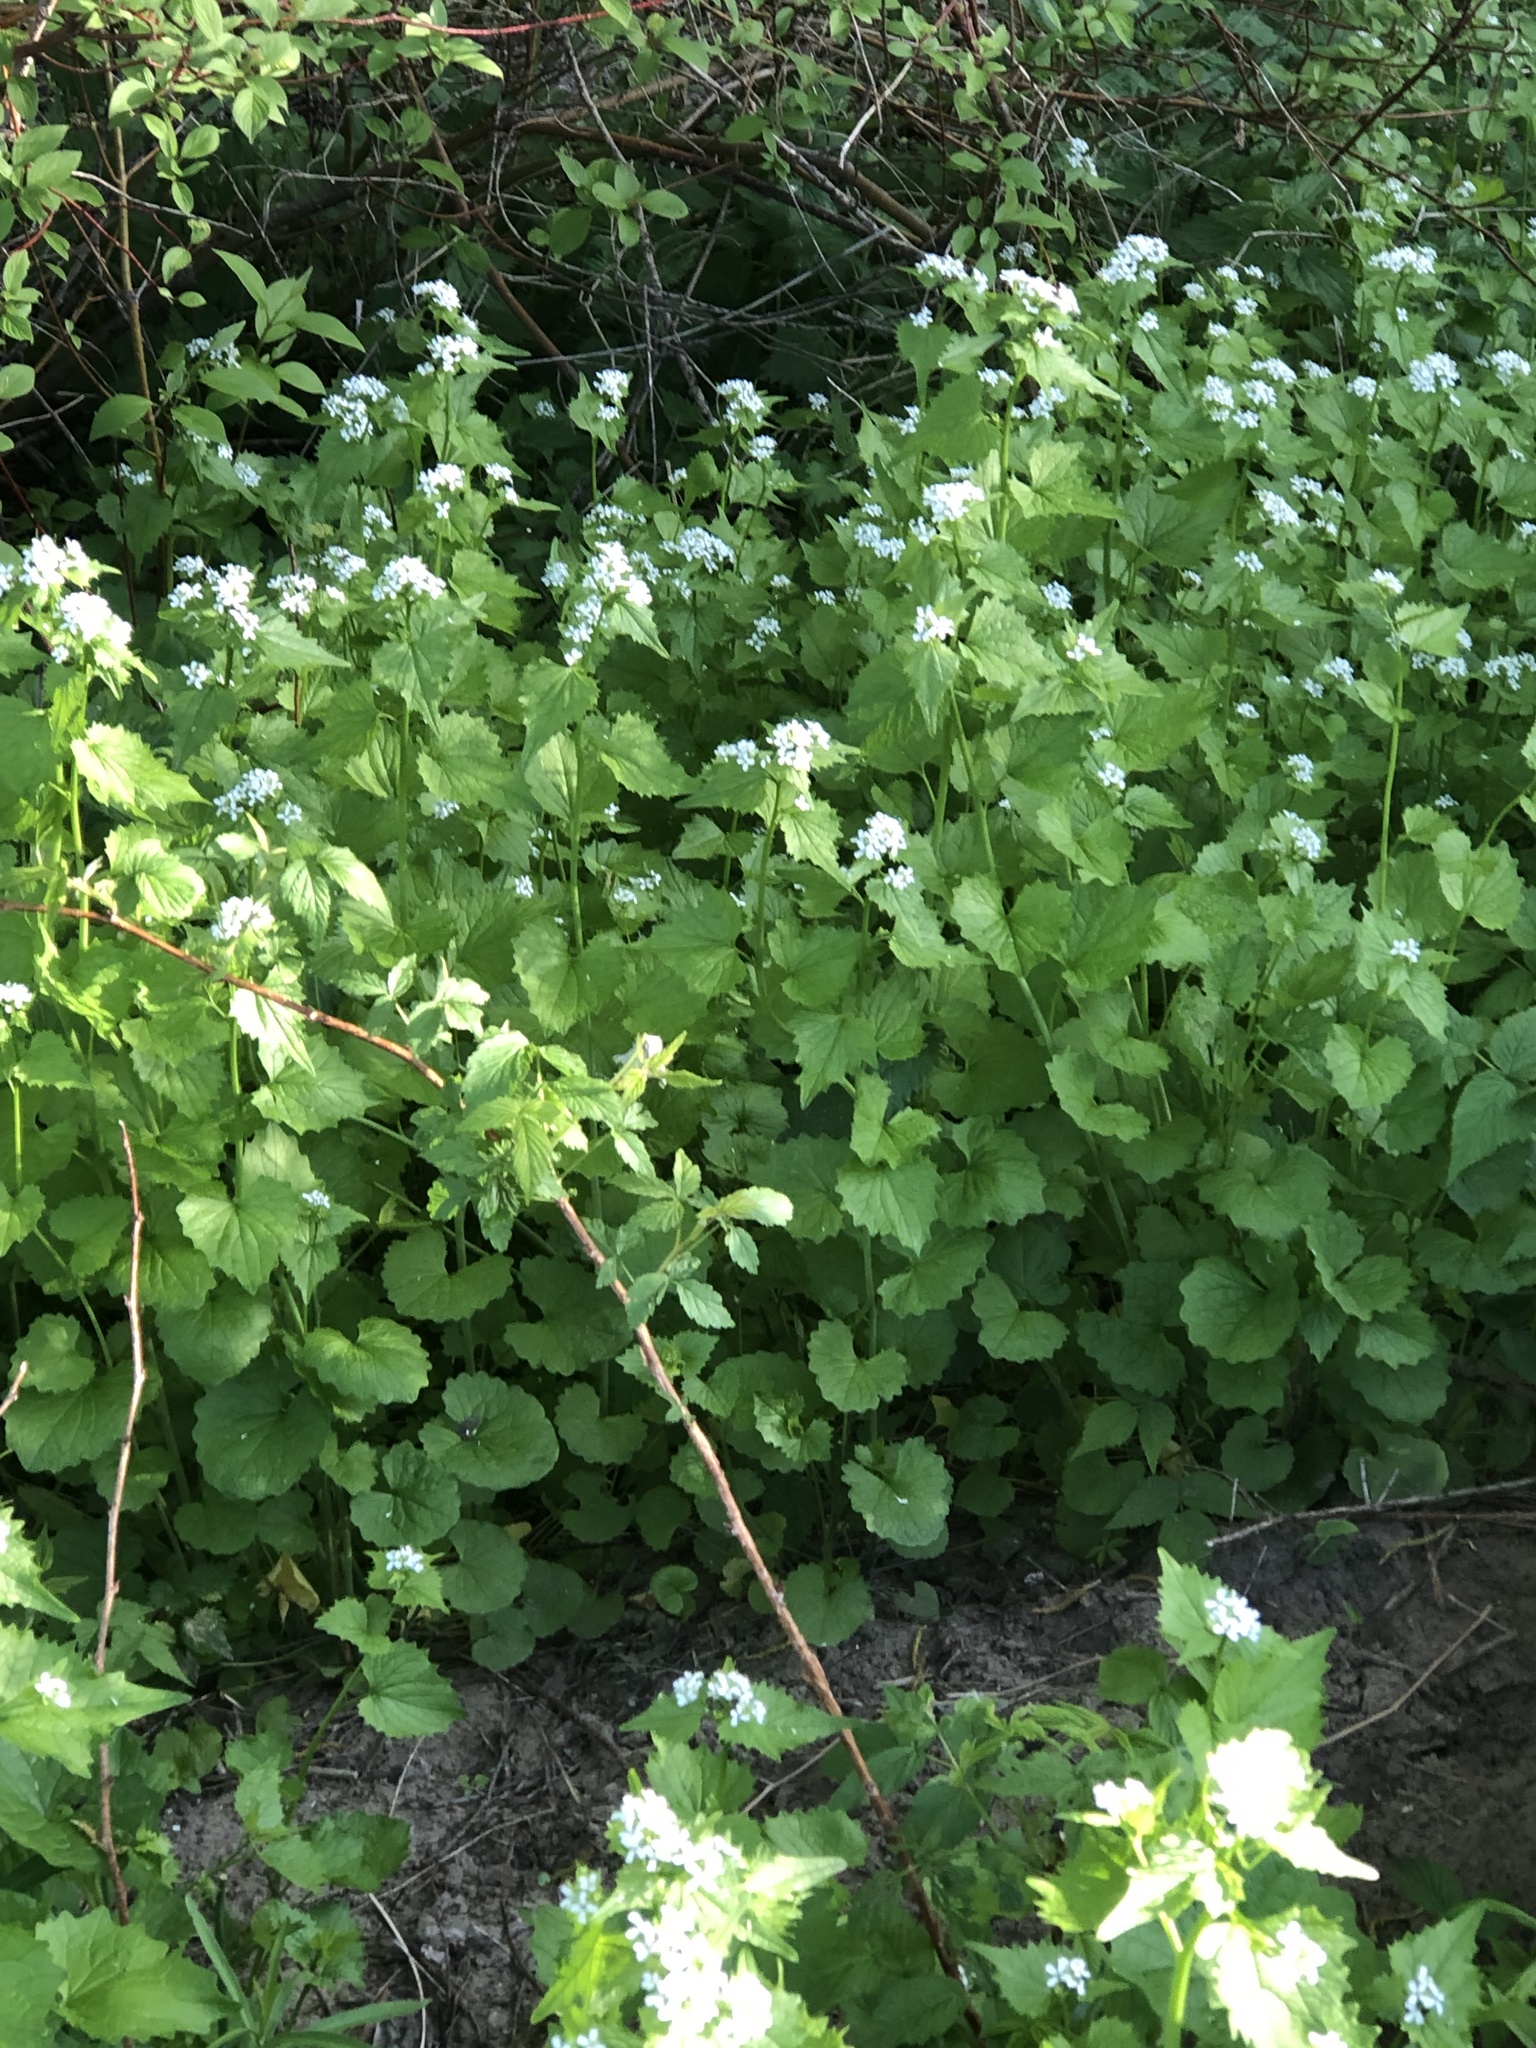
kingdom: Plantae
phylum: Tracheophyta
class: Magnoliopsida
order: Brassicales
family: Brassicaceae
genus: Alliaria
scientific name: Alliaria petiolata
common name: Garlic mustard
